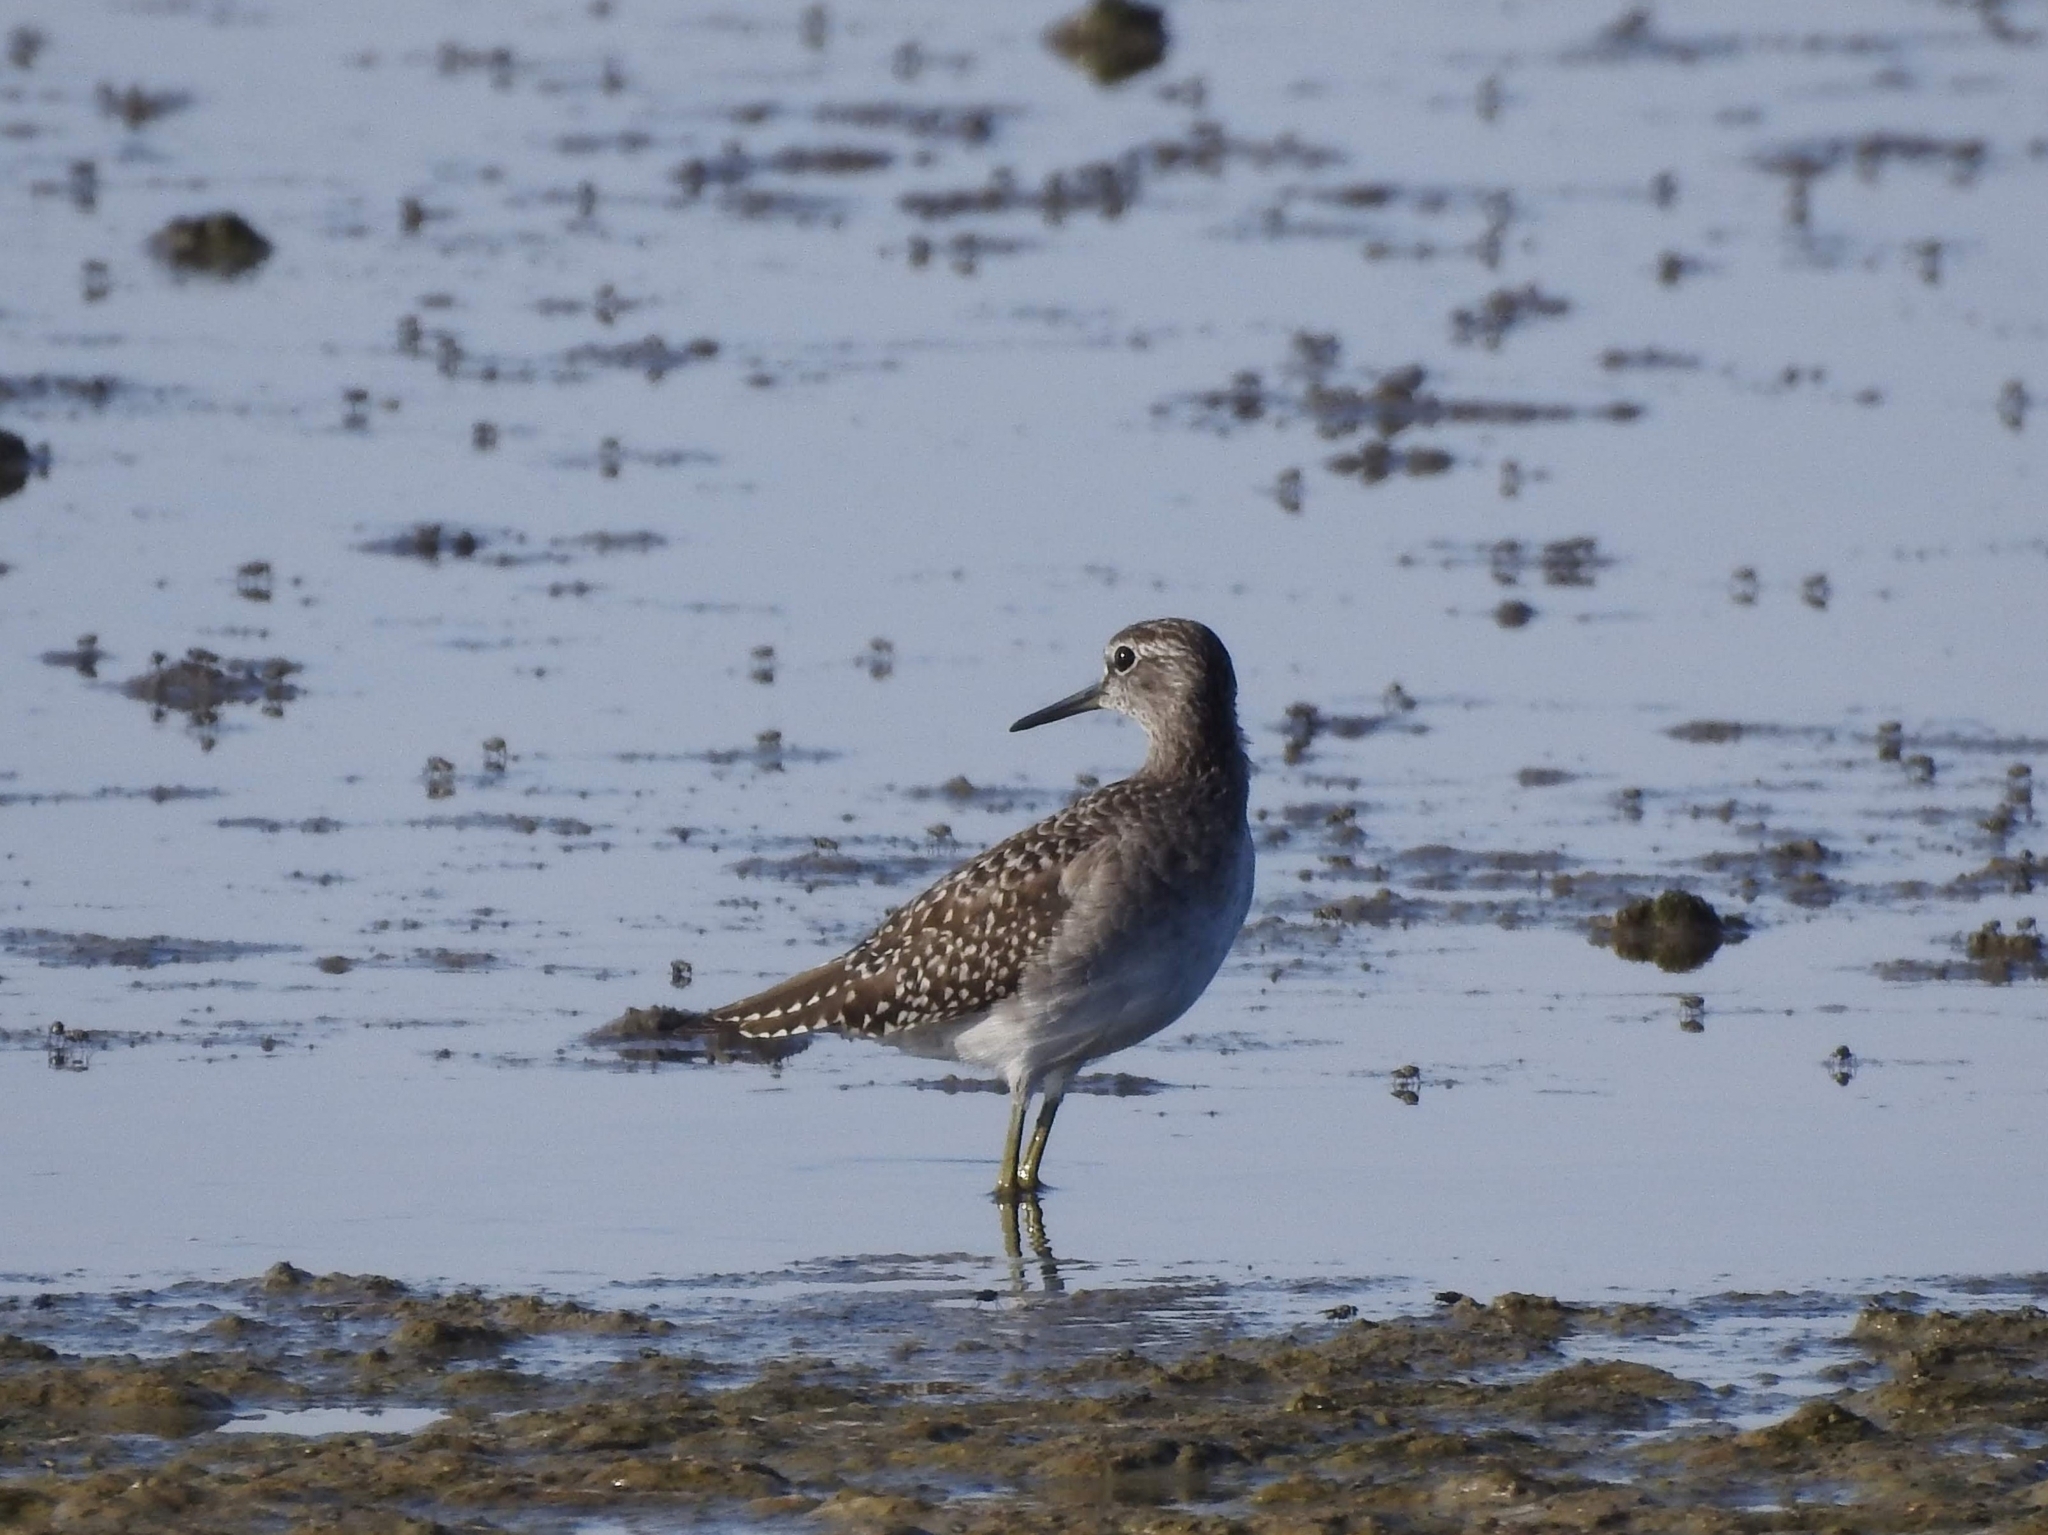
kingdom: Animalia
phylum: Chordata
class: Aves
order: Charadriiformes
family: Scolopacidae
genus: Tringa
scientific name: Tringa glareola
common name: Wood sandpiper
